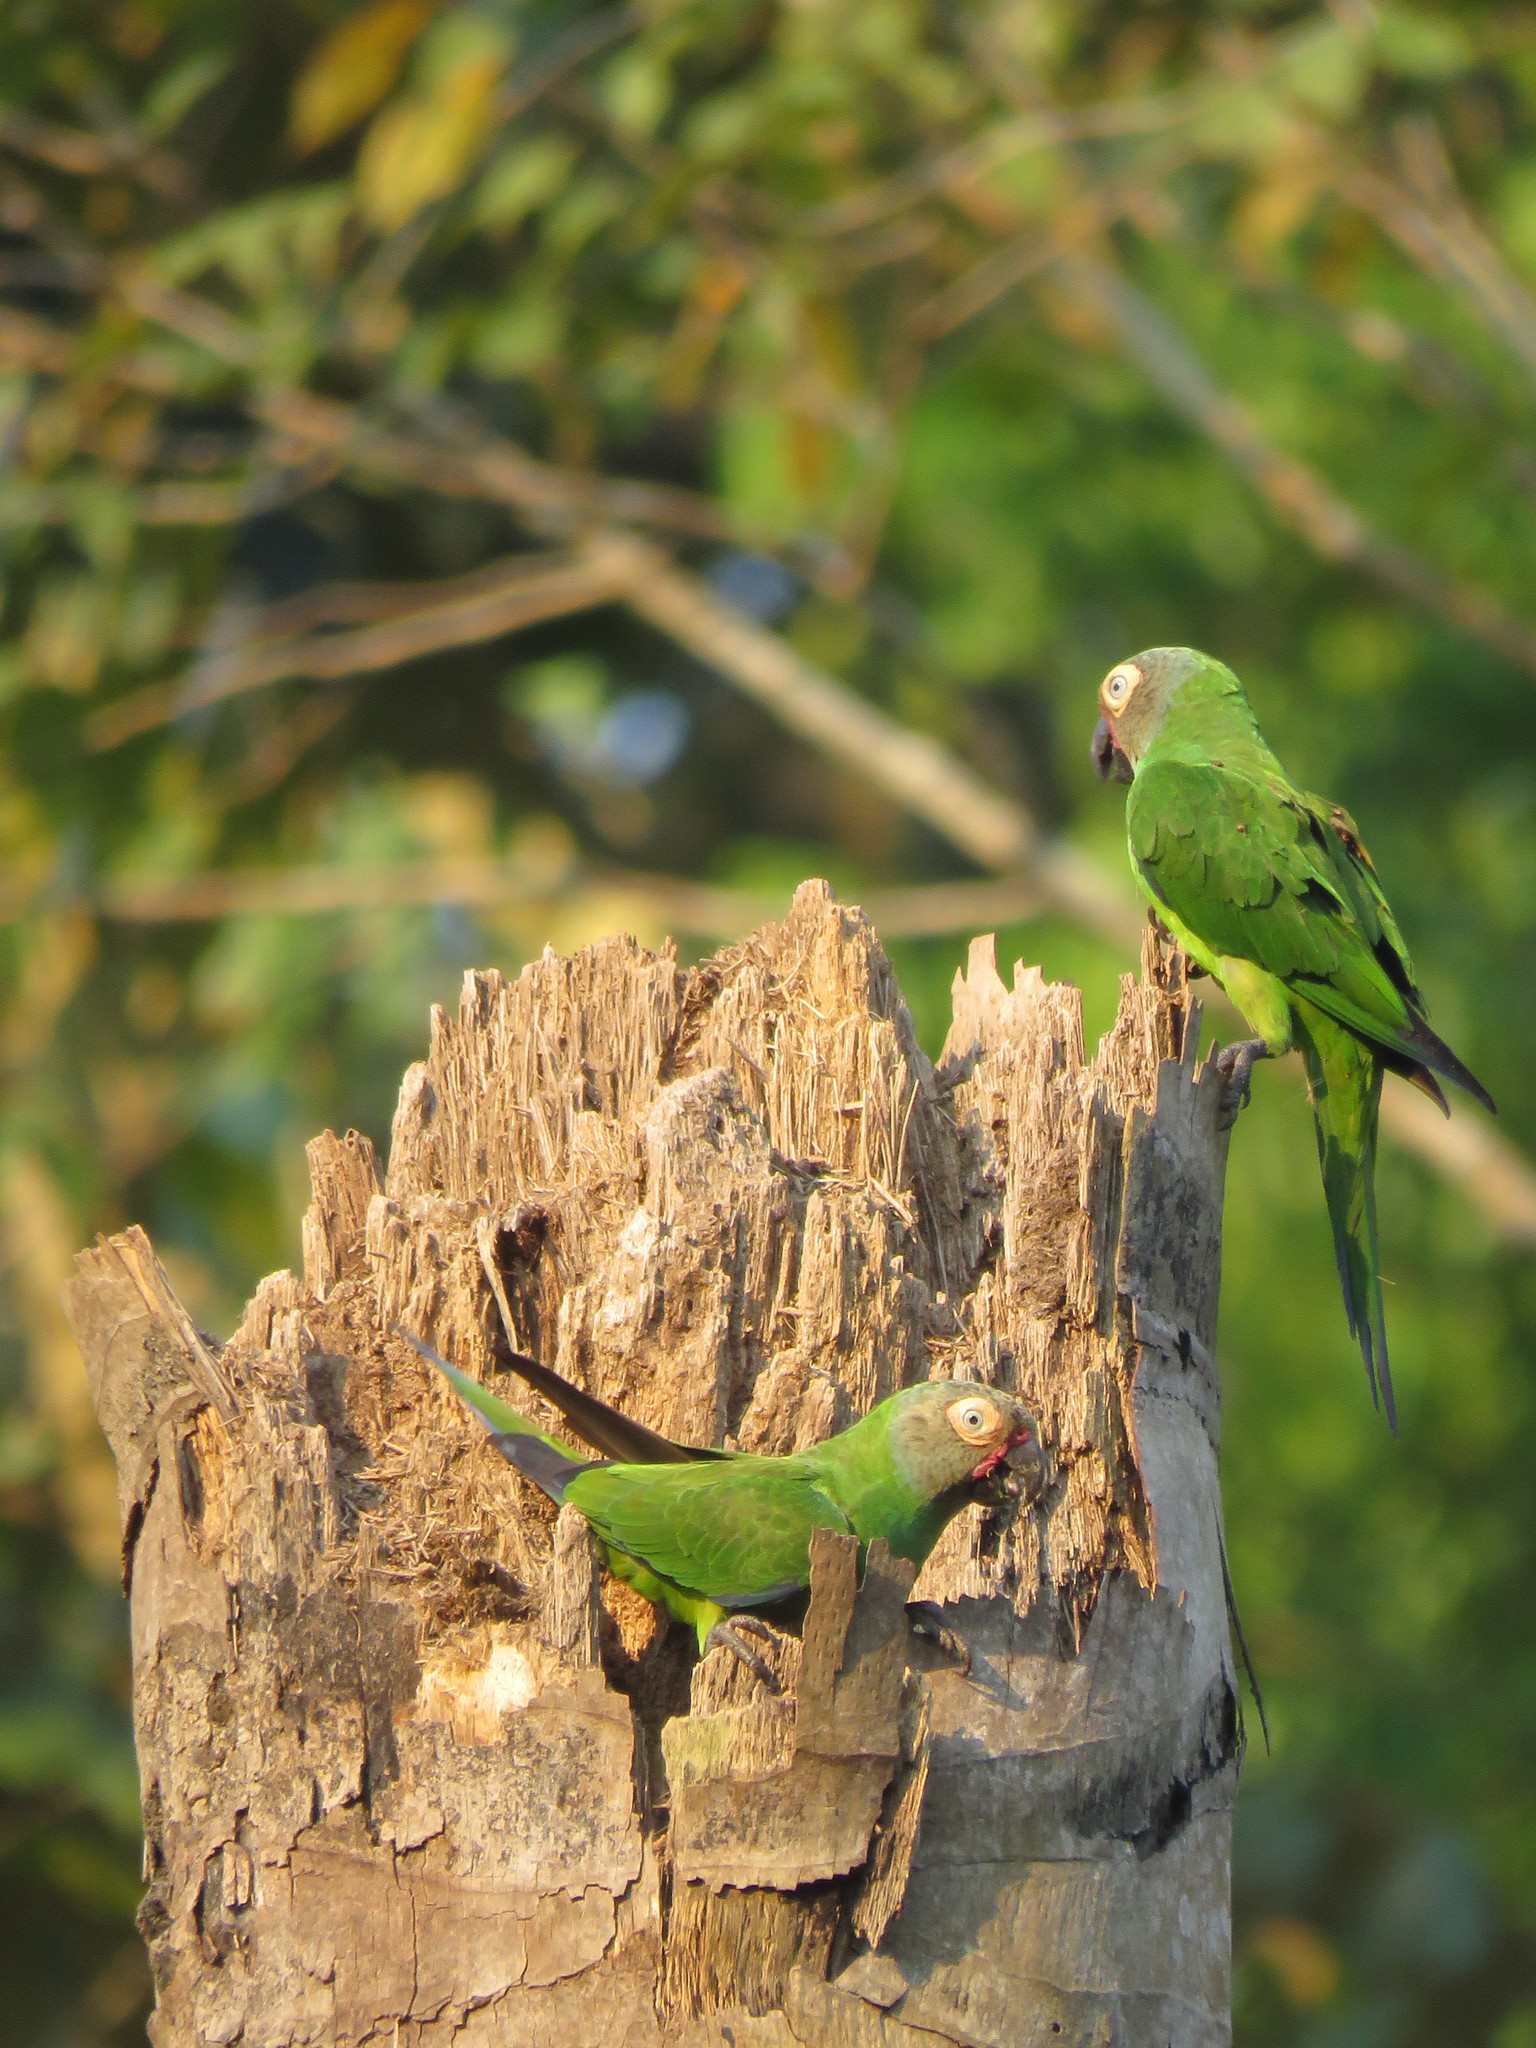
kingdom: Animalia
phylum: Chordata
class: Aves
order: Psittaciformes
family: Psittacidae
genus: Aratinga
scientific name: Aratinga weddellii
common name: Dusky-headed parakeet
